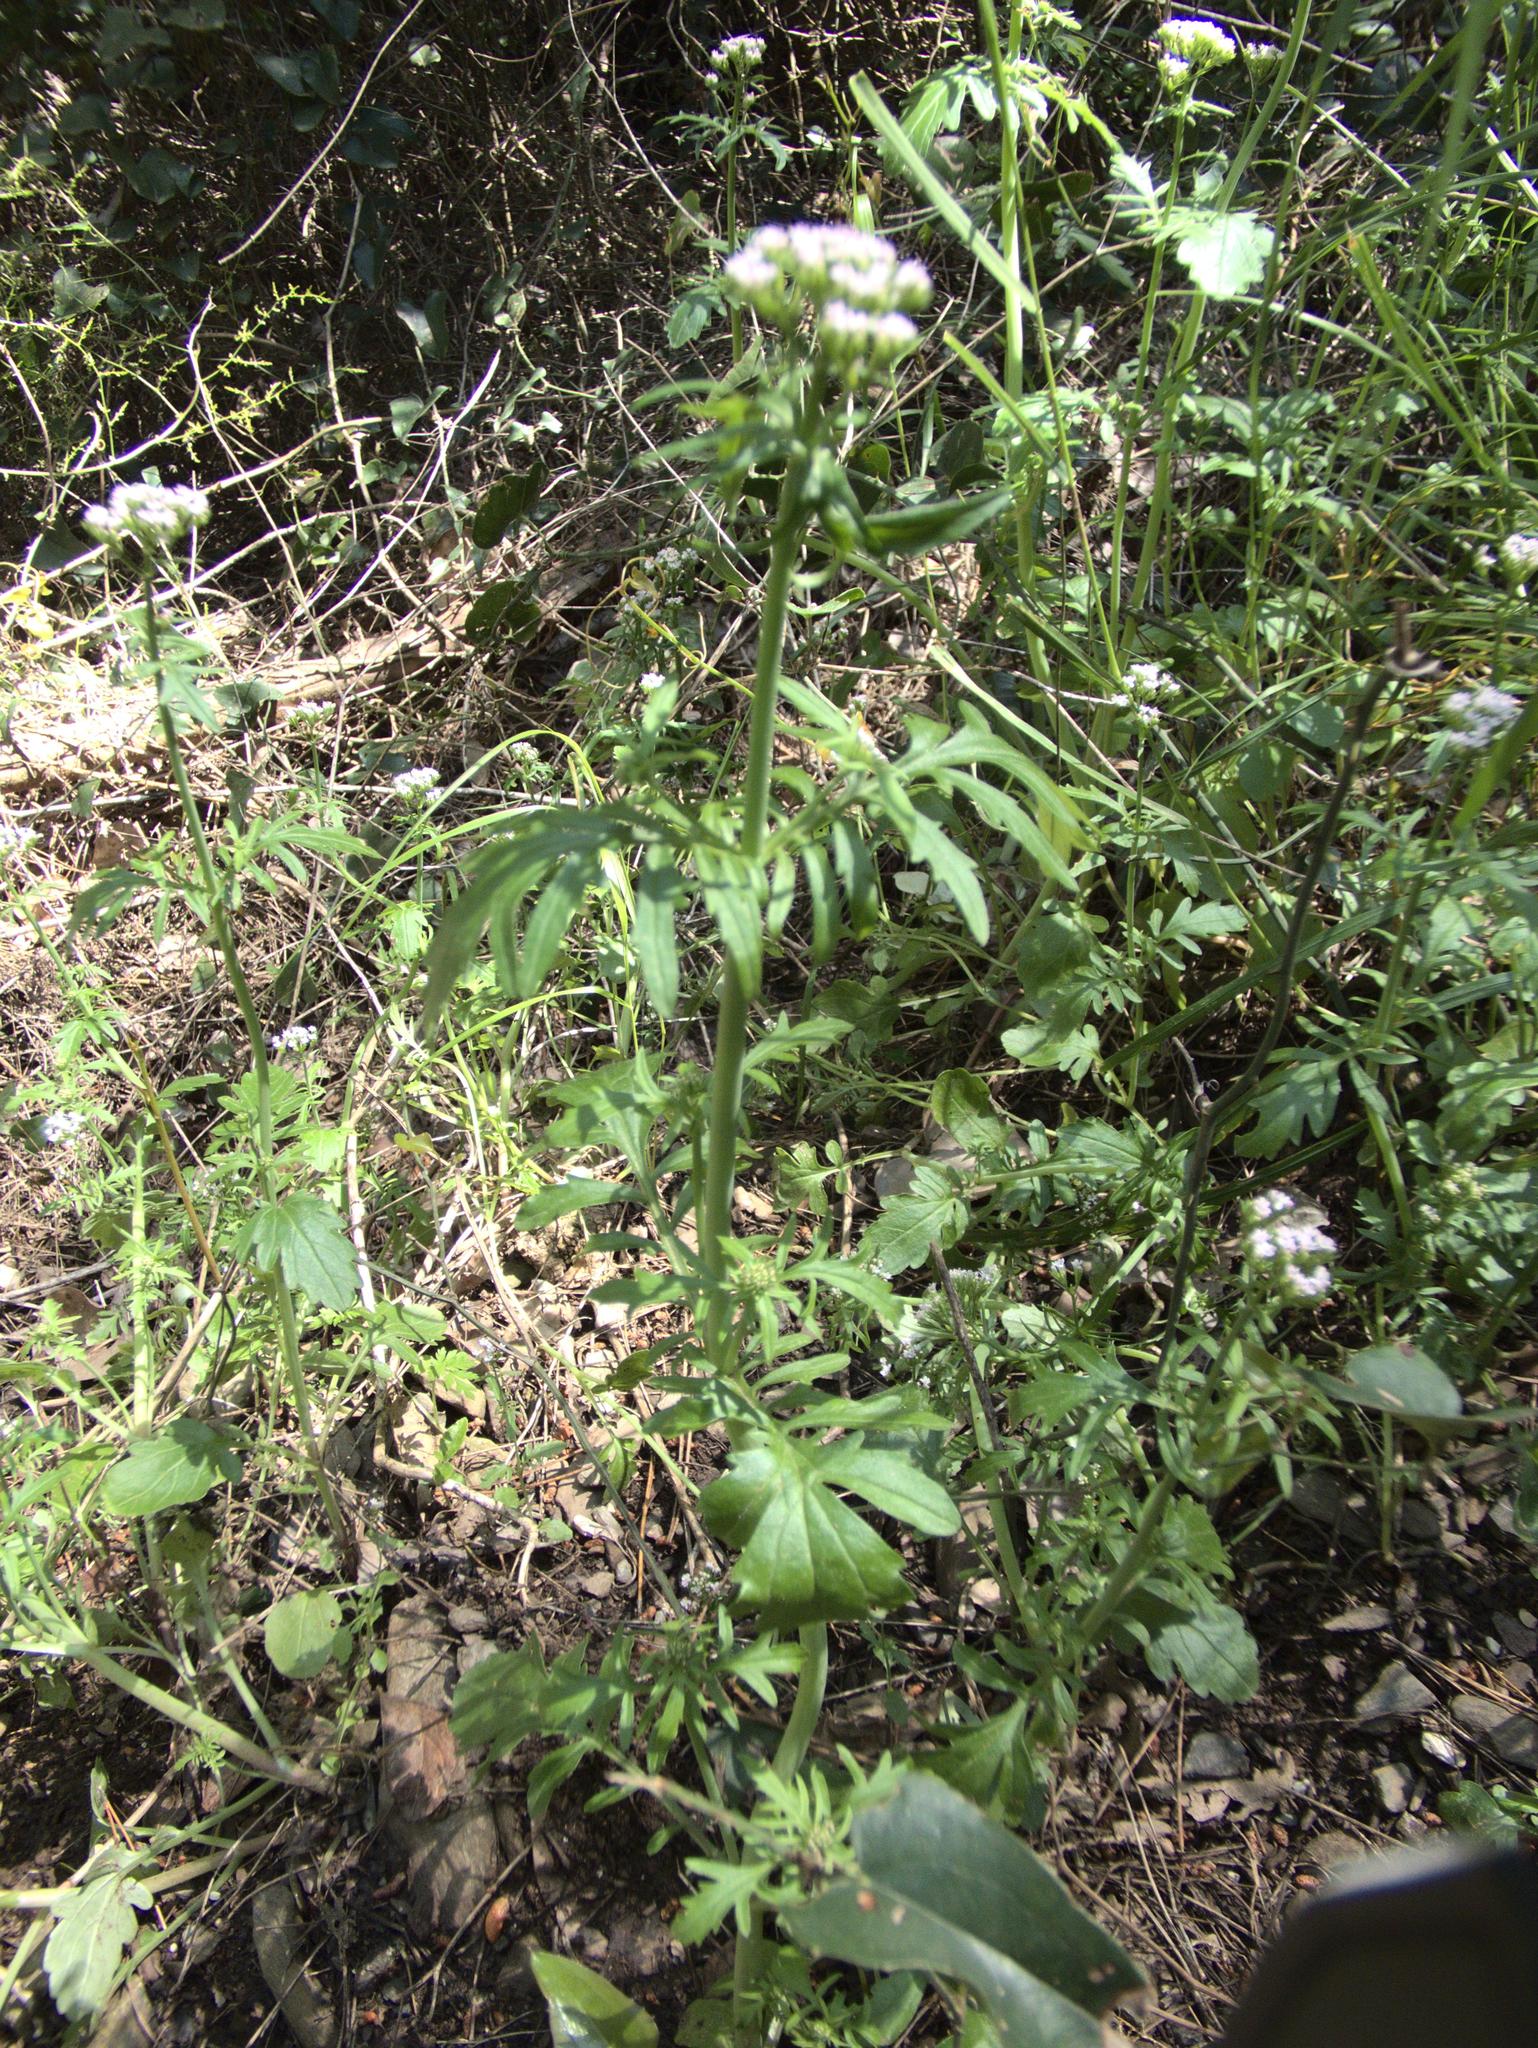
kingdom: Plantae
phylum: Tracheophyta
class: Magnoliopsida
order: Dipsacales
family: Caprifoliaceae
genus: Centranthus
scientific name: Centranthus calcitrapae
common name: Annual valerian
